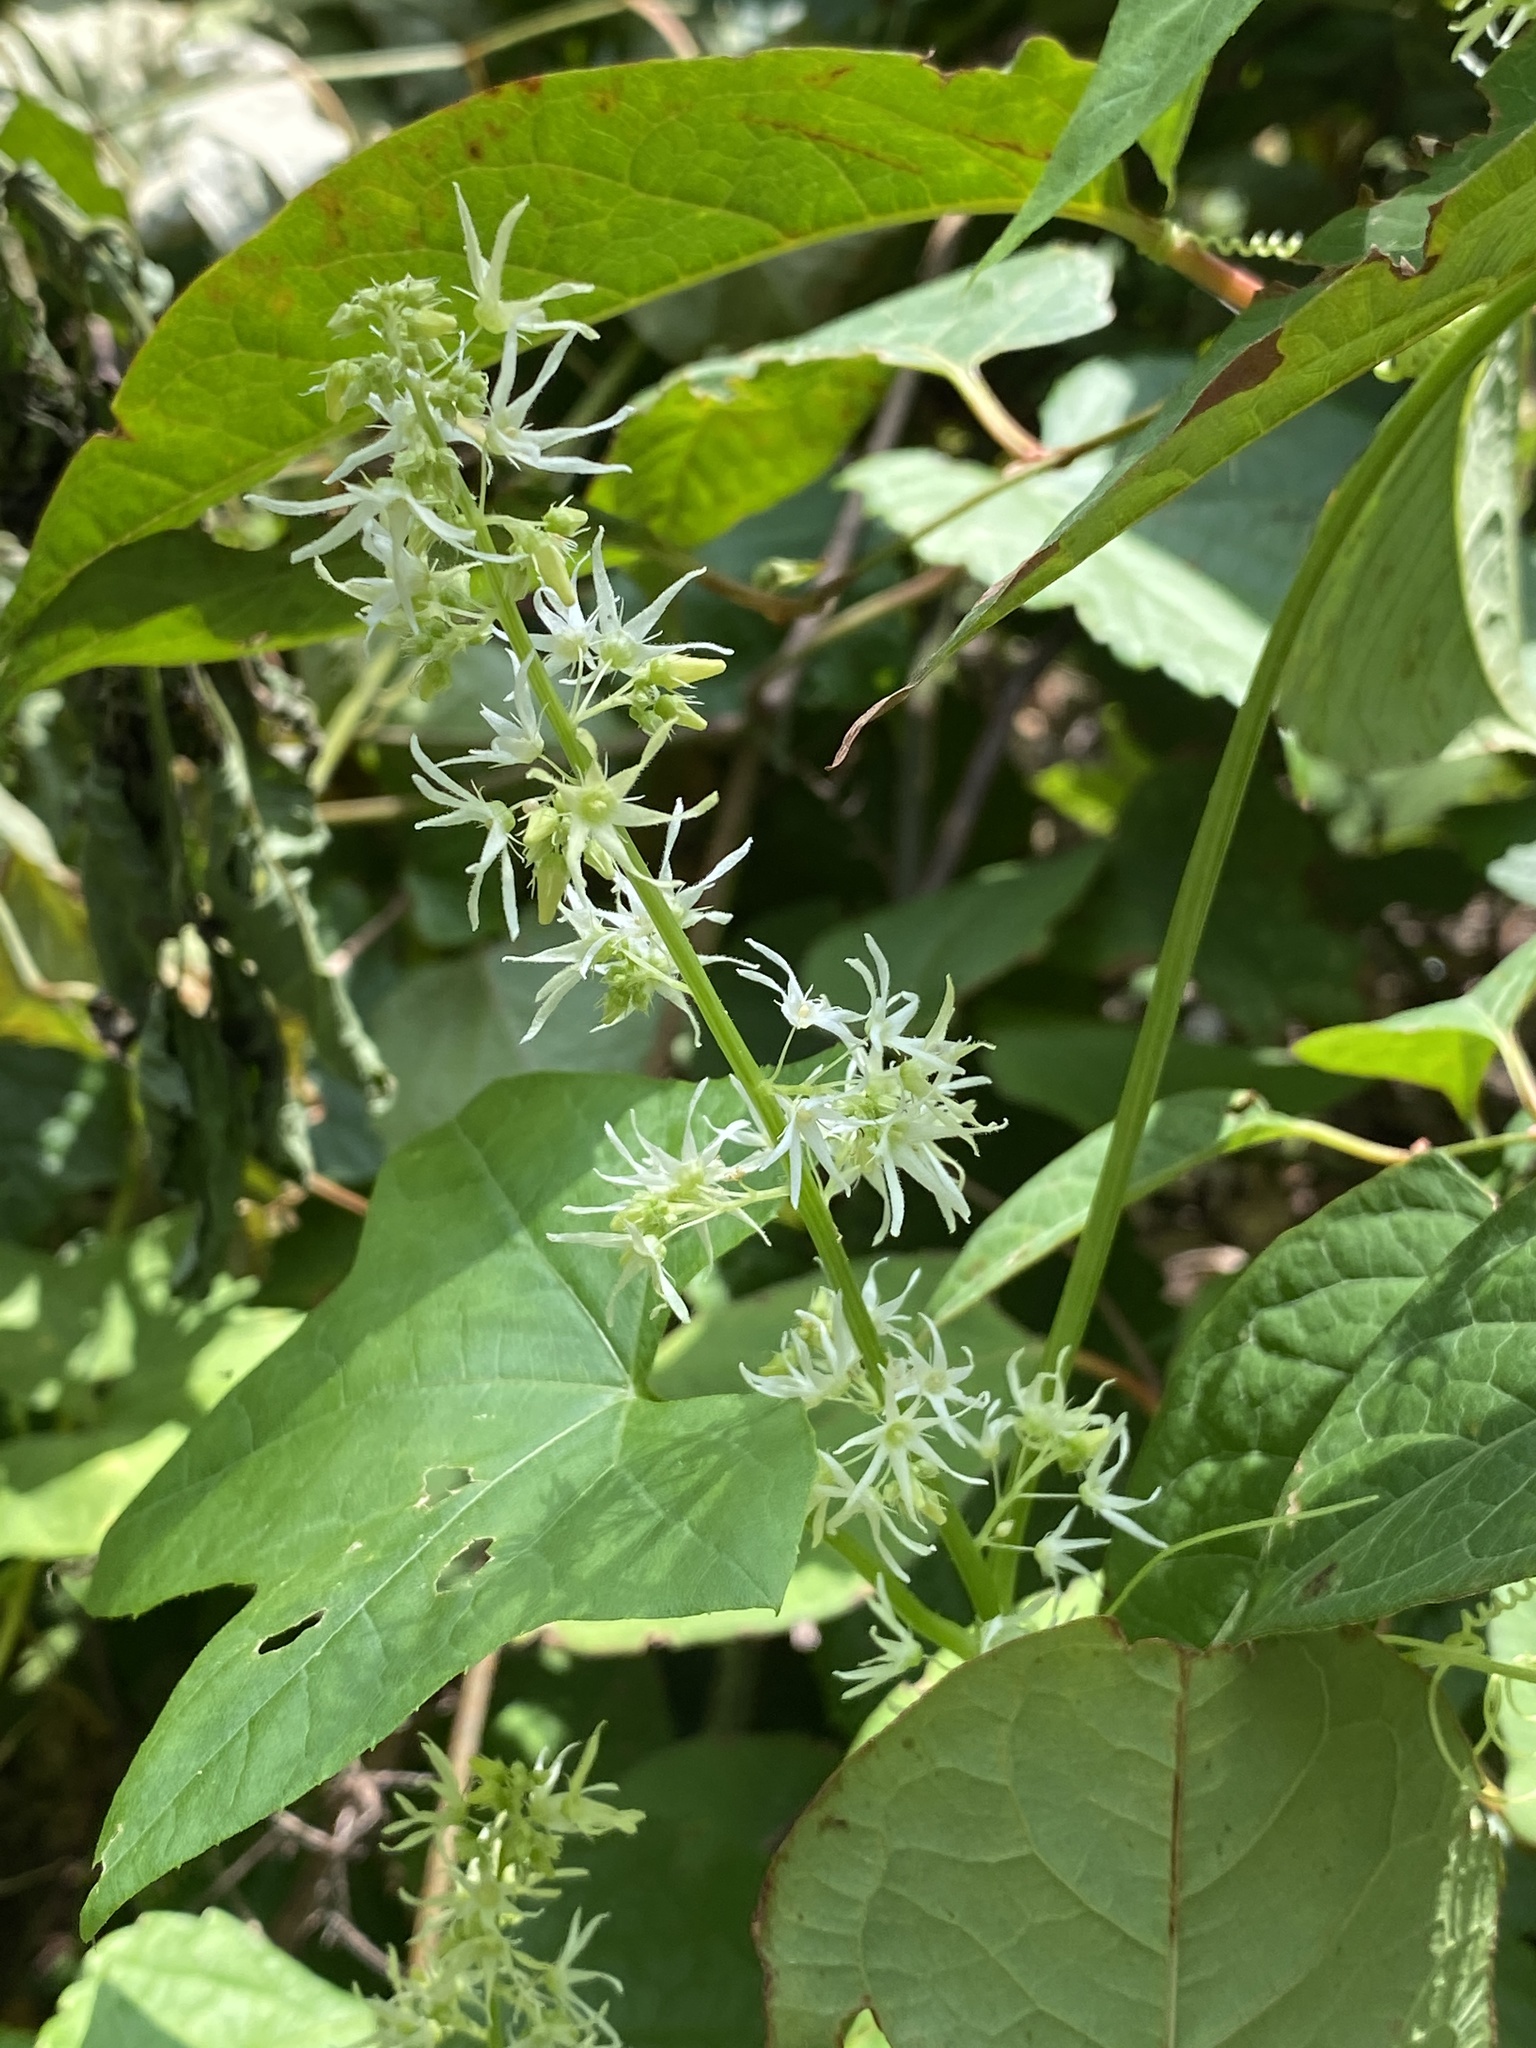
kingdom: Plantae
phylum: Tracheophyta
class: Magnoliopsida
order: Cucurbitales
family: Cucurbitaceae
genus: Echinocystis
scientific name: Echinocystis lobata
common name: Wild cucumber
